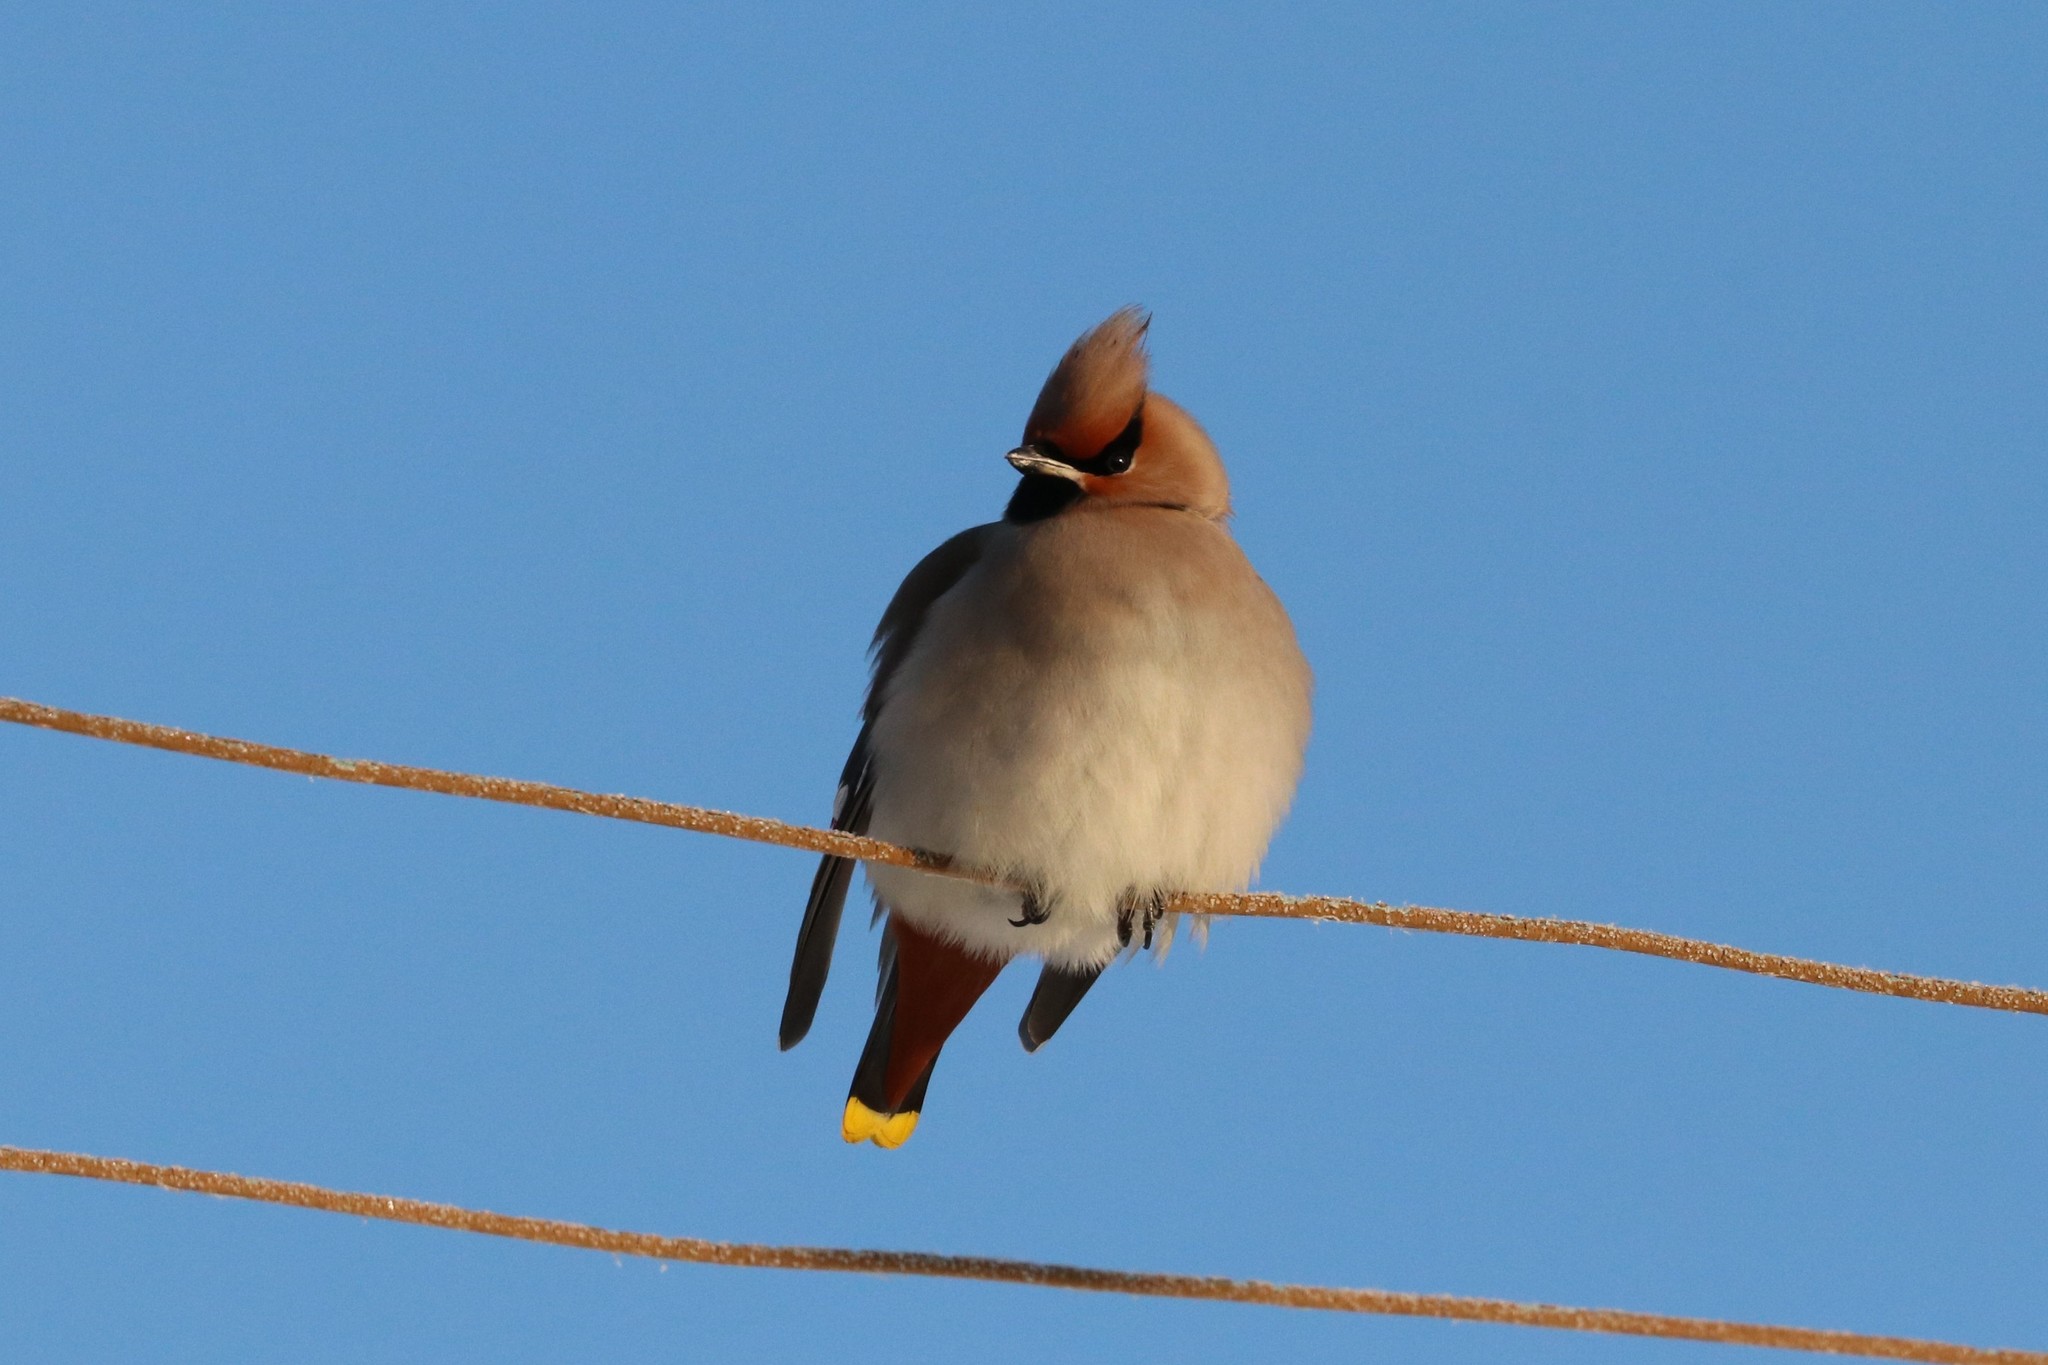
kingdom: Animalia
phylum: Chordata
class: Aves
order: Passeriformes
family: Bombycillidae
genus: Bombycilla
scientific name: Bombycilla garrulus
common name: Bohemian waxwing
